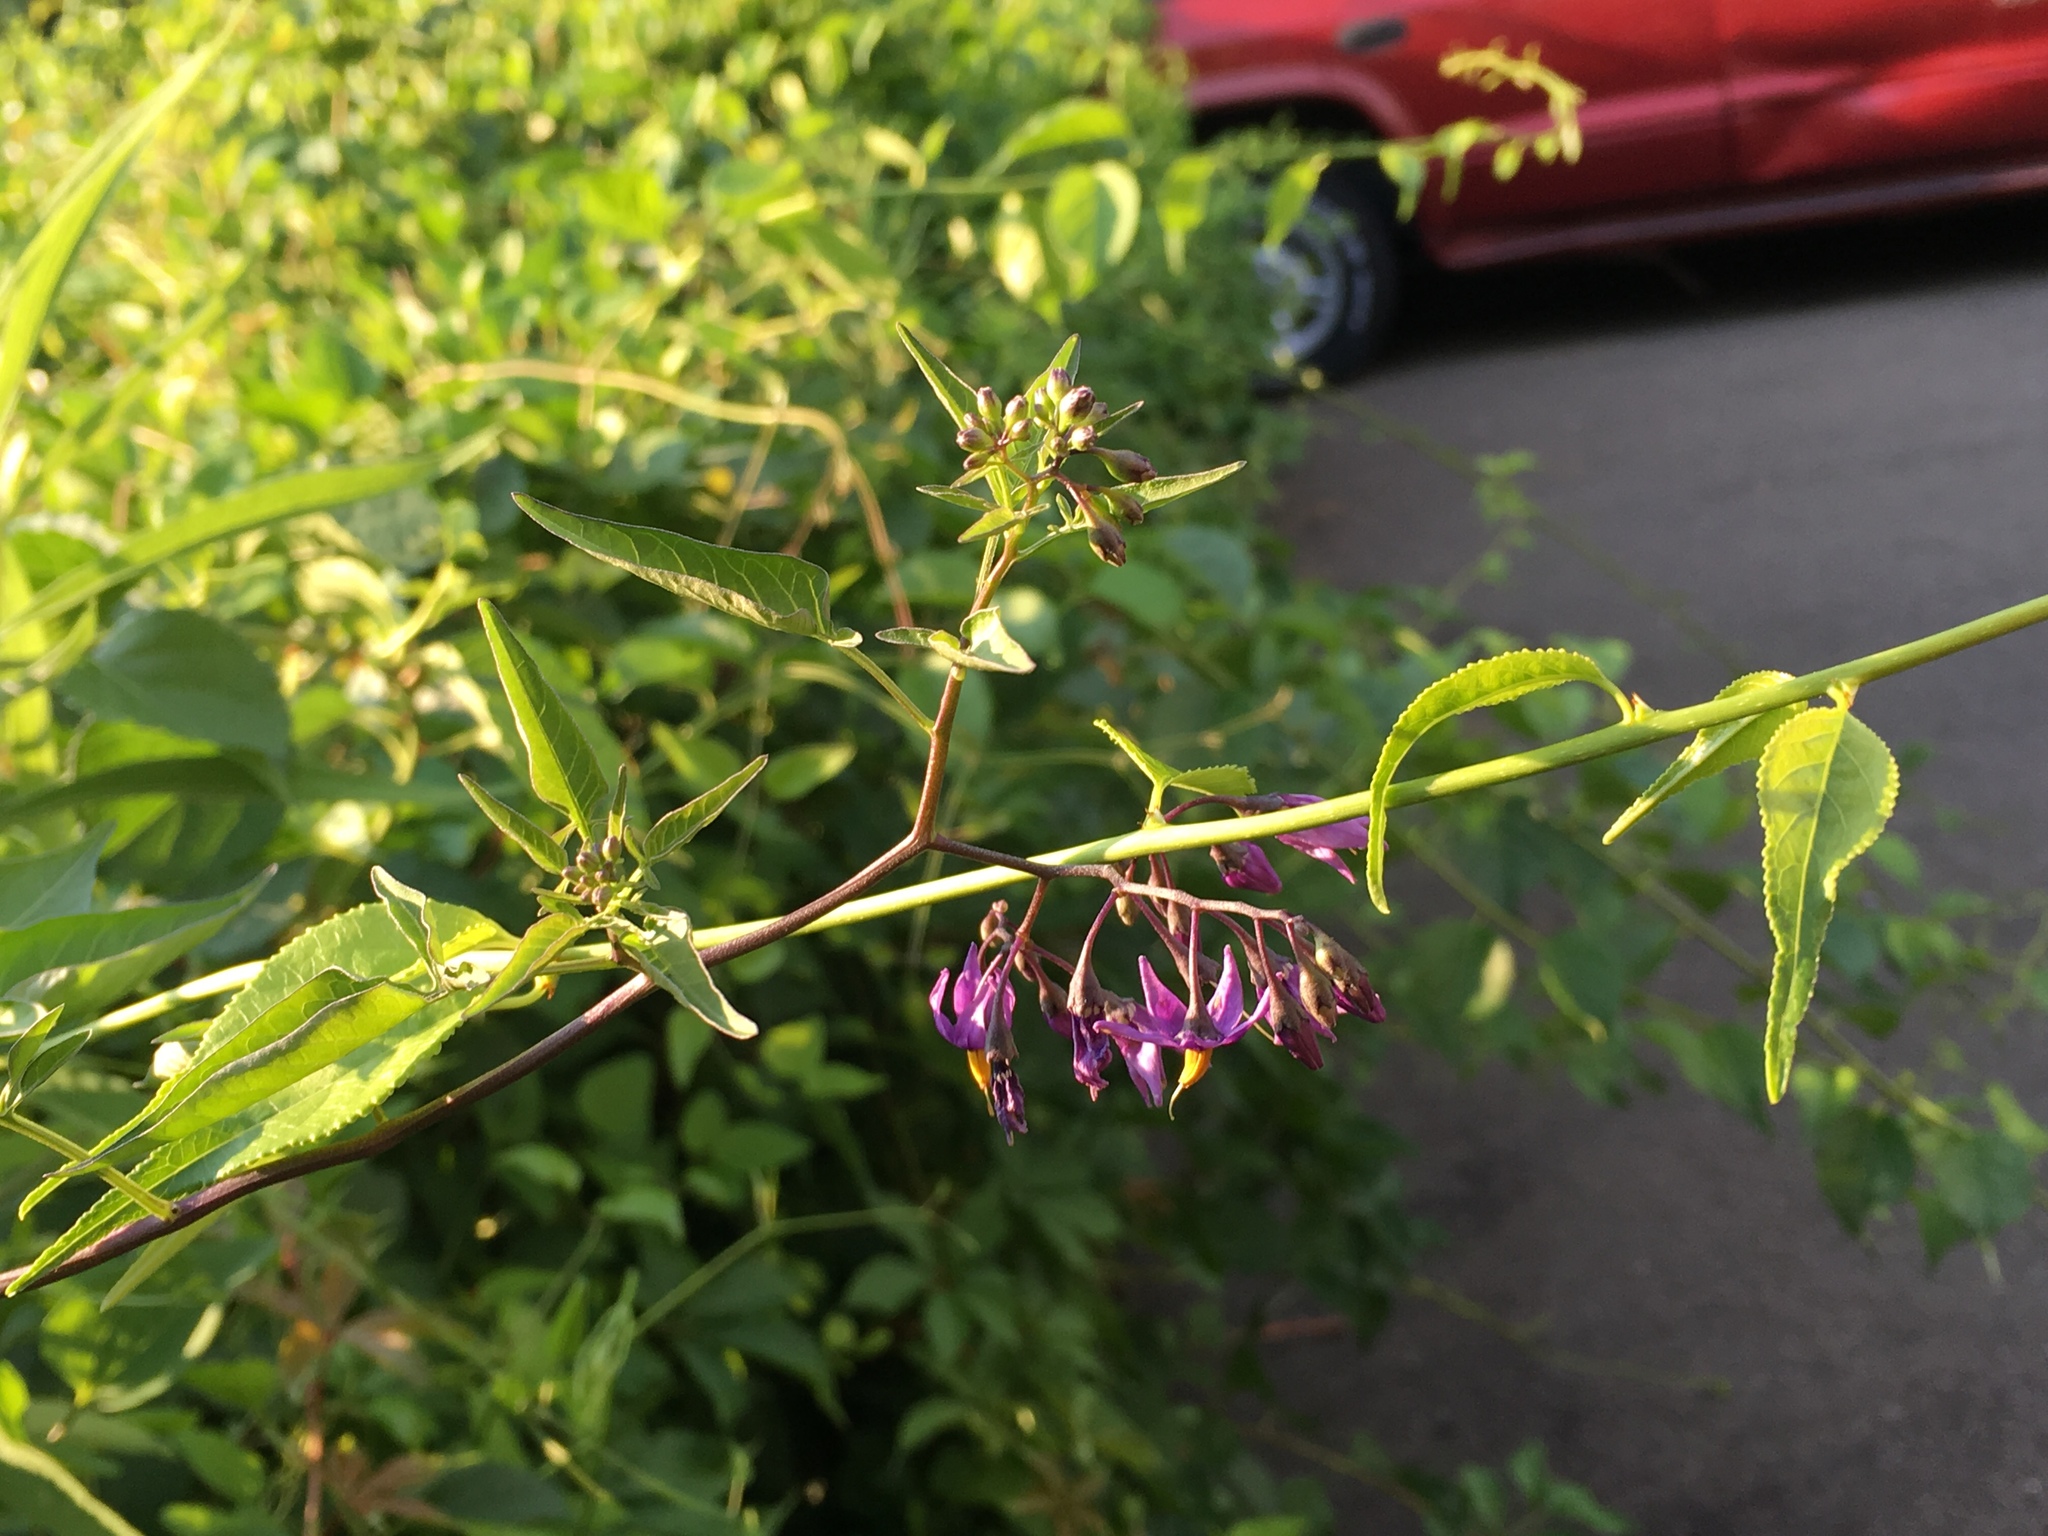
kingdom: Plantae
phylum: Tracheophyta
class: Magnoliopsida
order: Solanales
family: Solanaceae
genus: Solanum
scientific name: Solanum dulcamara
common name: Climbing nightshade
